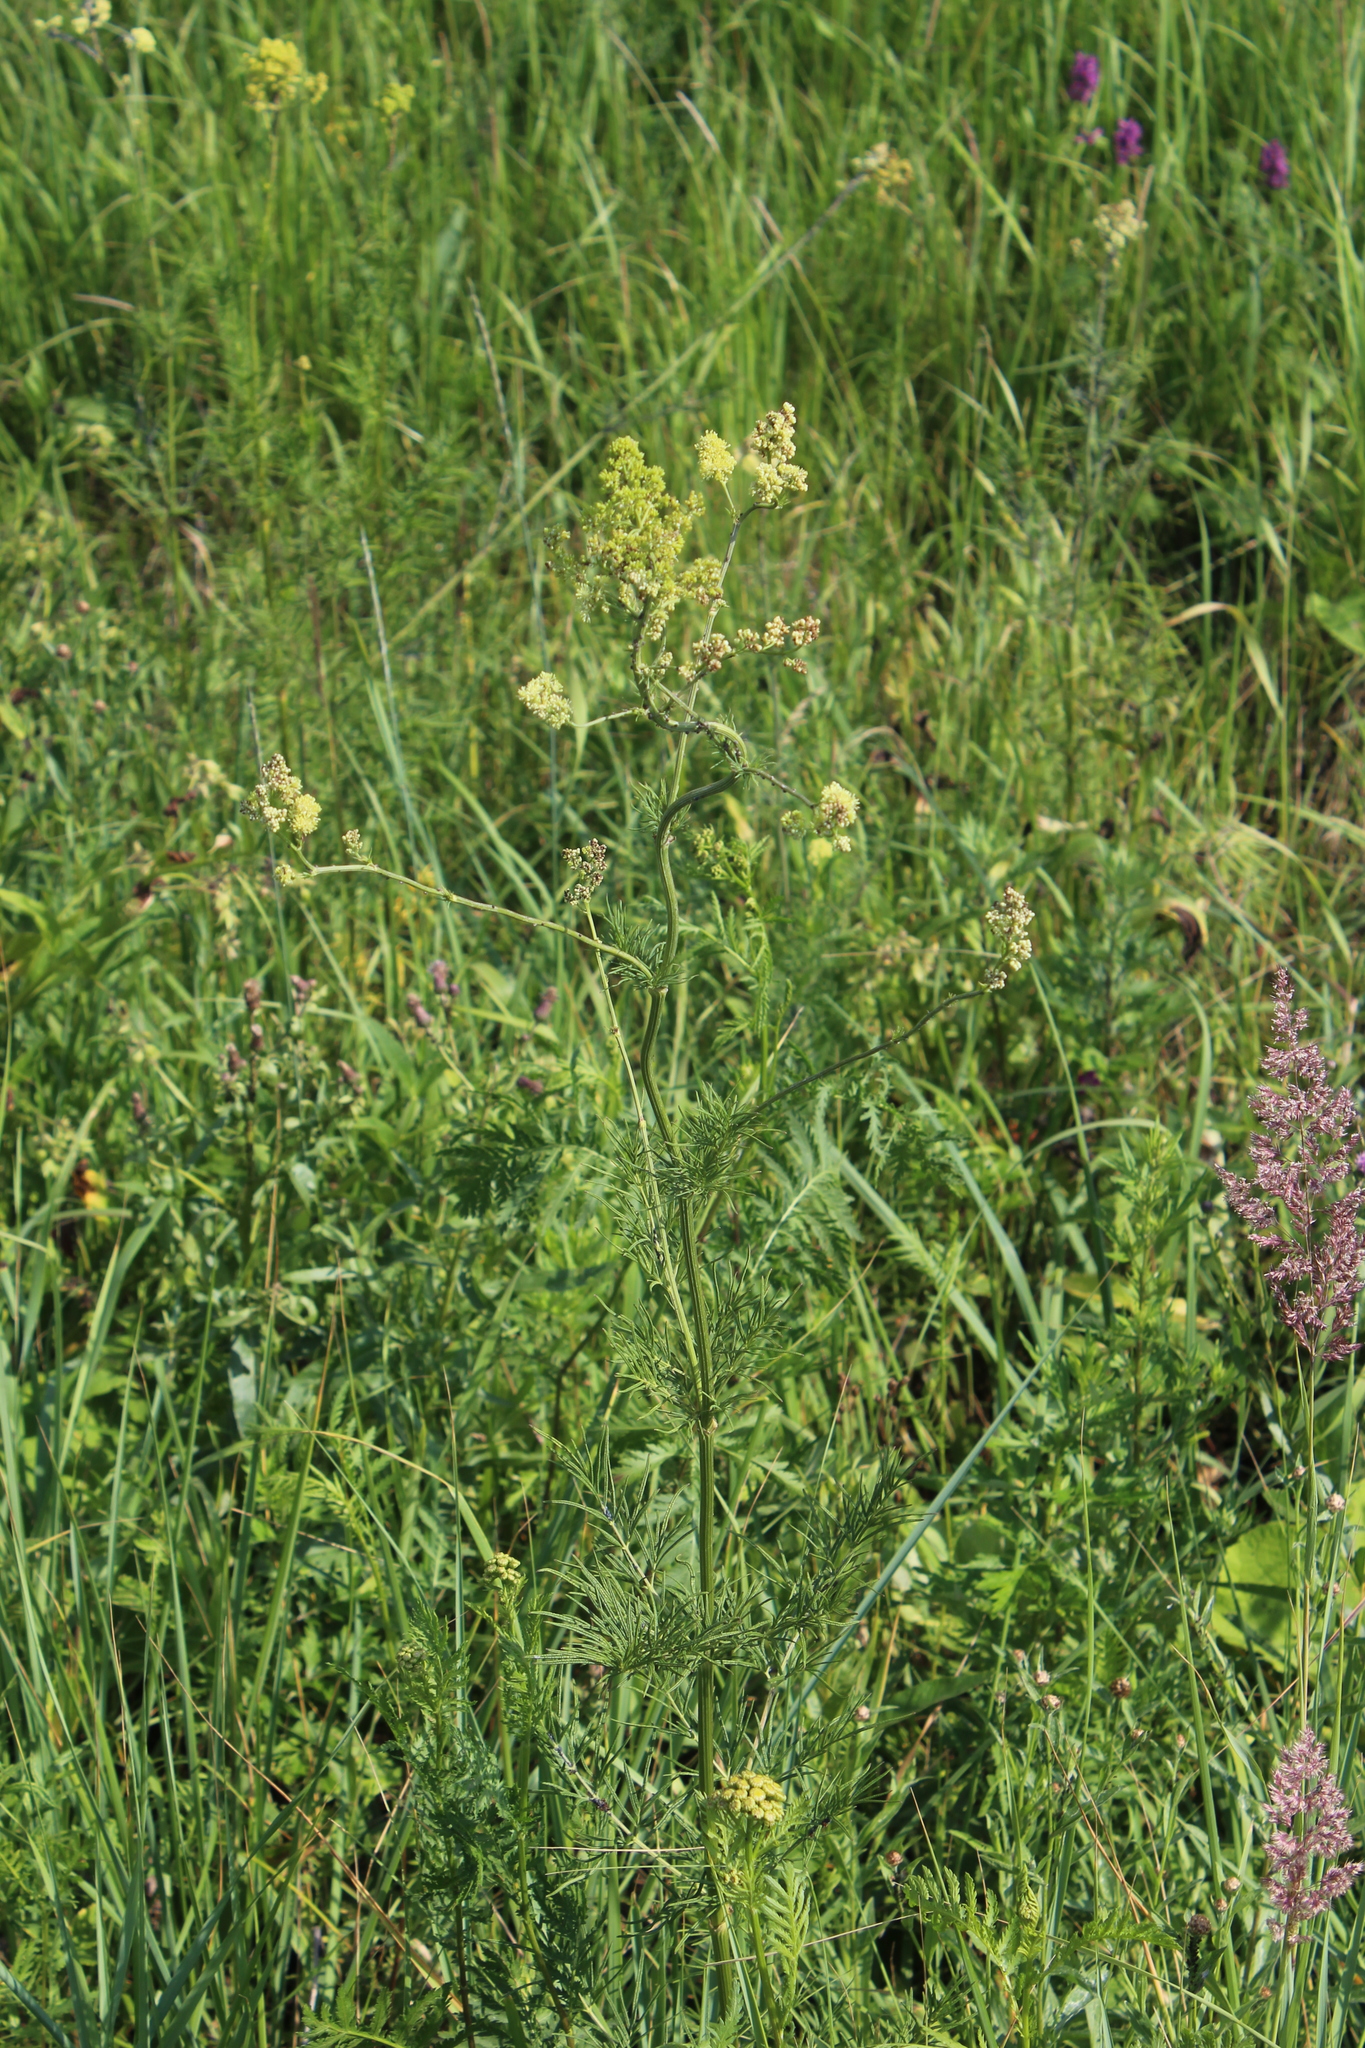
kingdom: Plantae
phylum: Tracheophyta
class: Magnoliopsida
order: Ranunculales
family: Ranunculaceae
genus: Thalictrum
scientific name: Thalictrum lucidum
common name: Shining meadow-rue
